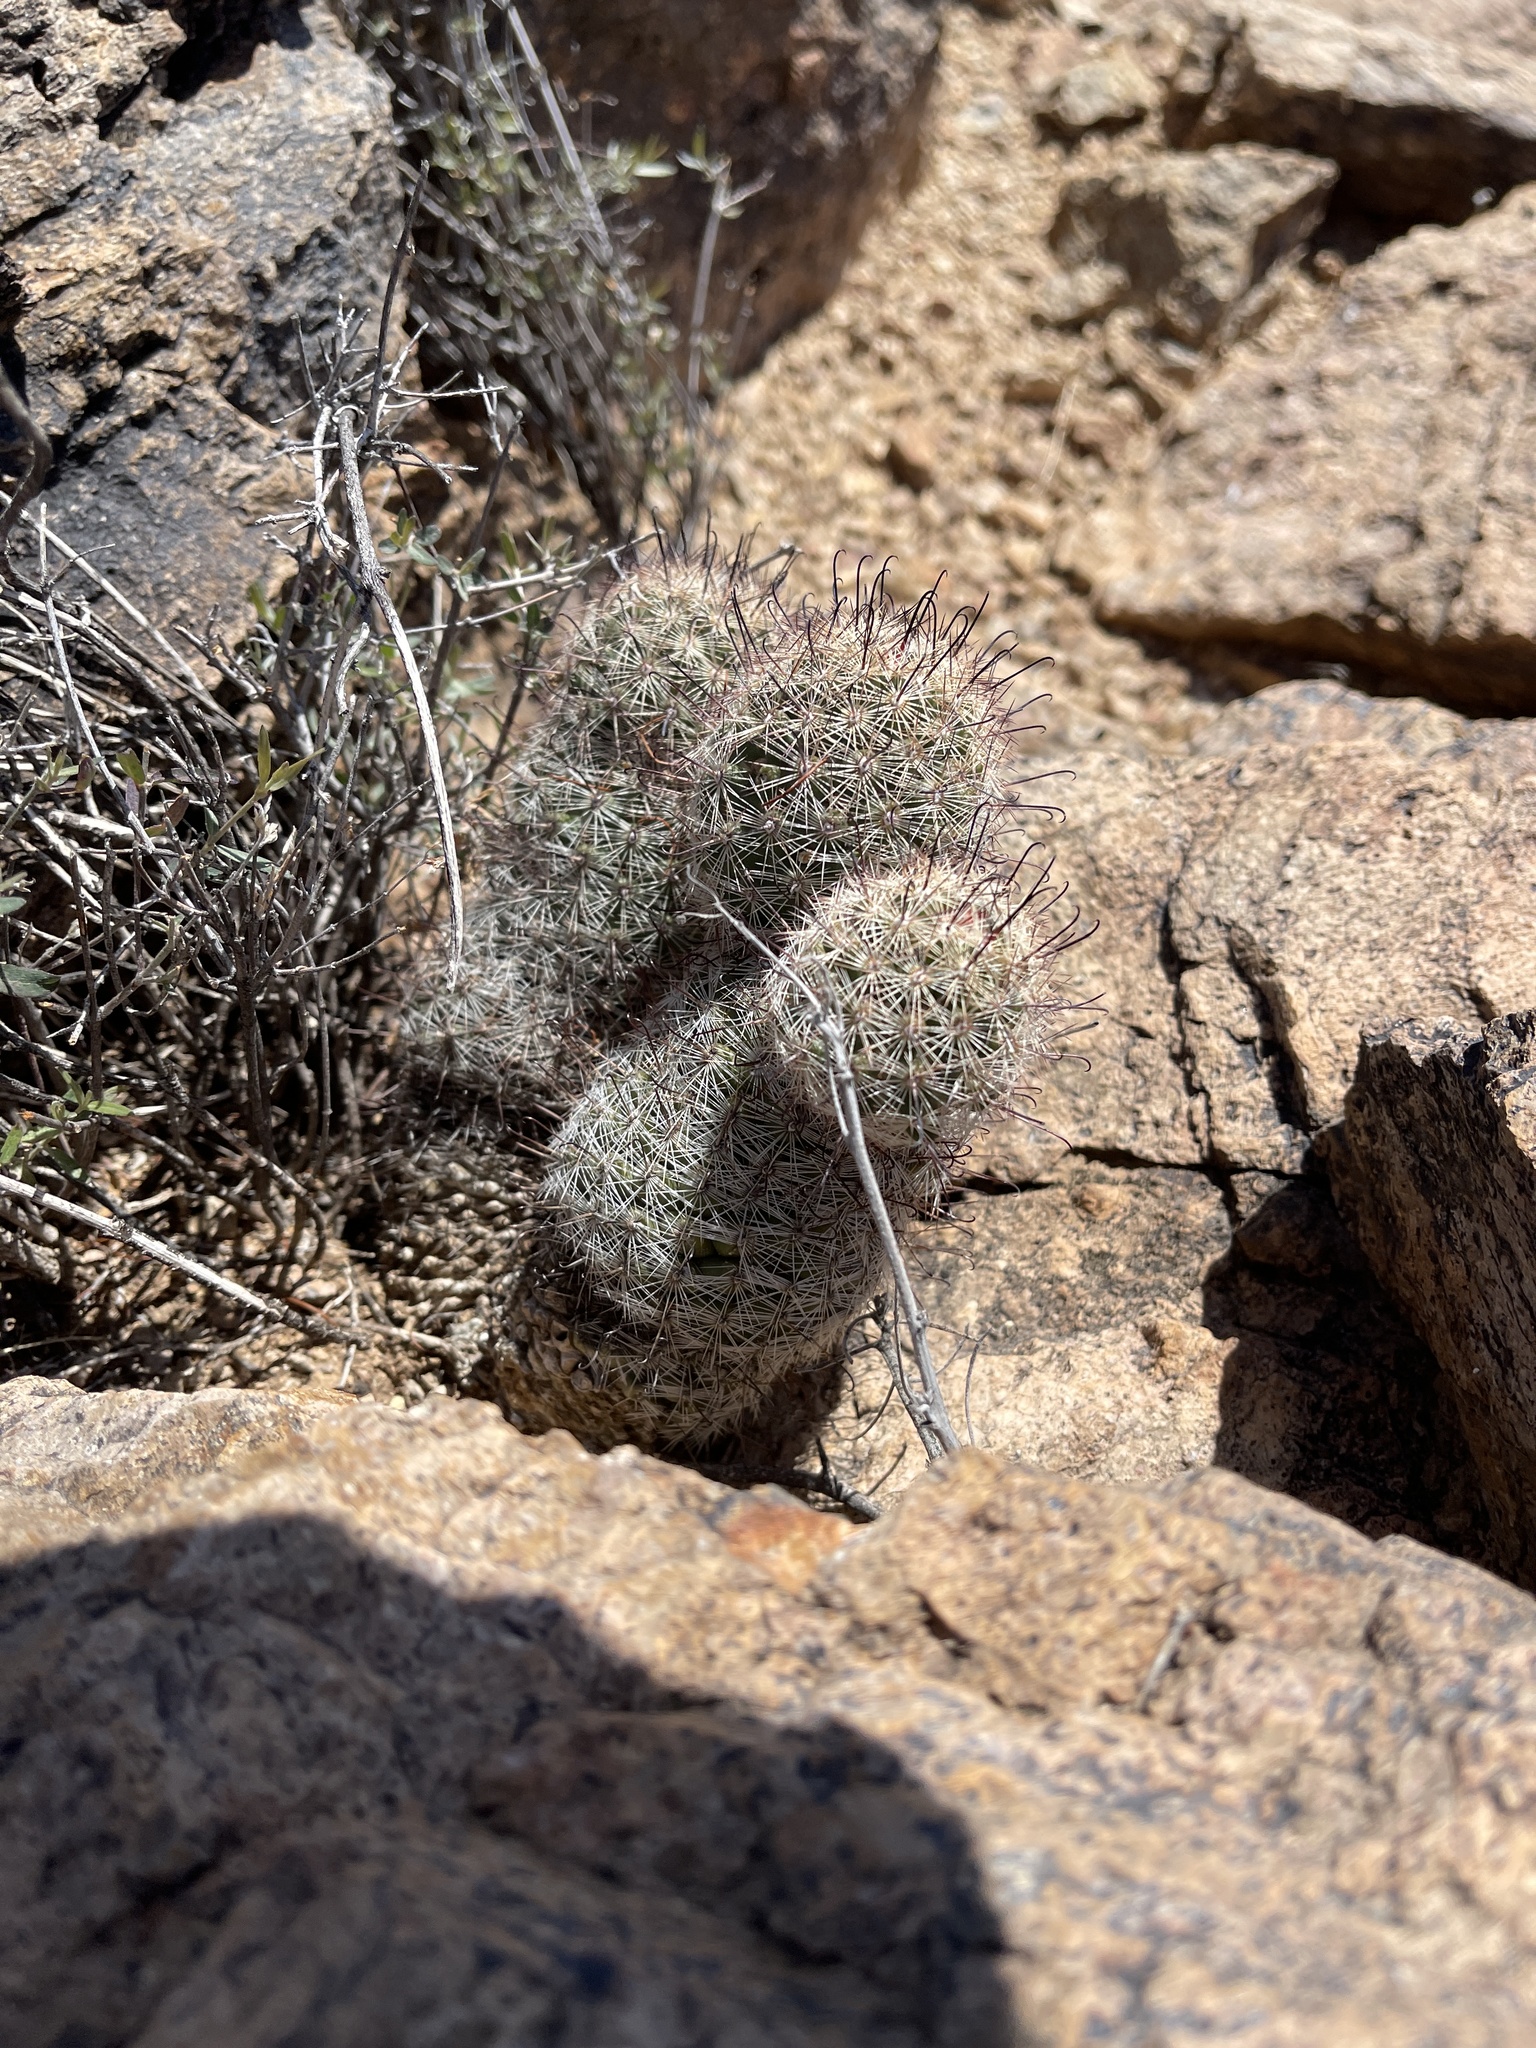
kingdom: Plantae
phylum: Tracheophyta
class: Magnoliopsida
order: Caryophyllales
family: Cactaceae
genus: Cochemiea
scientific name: Cochemiea grahamii
